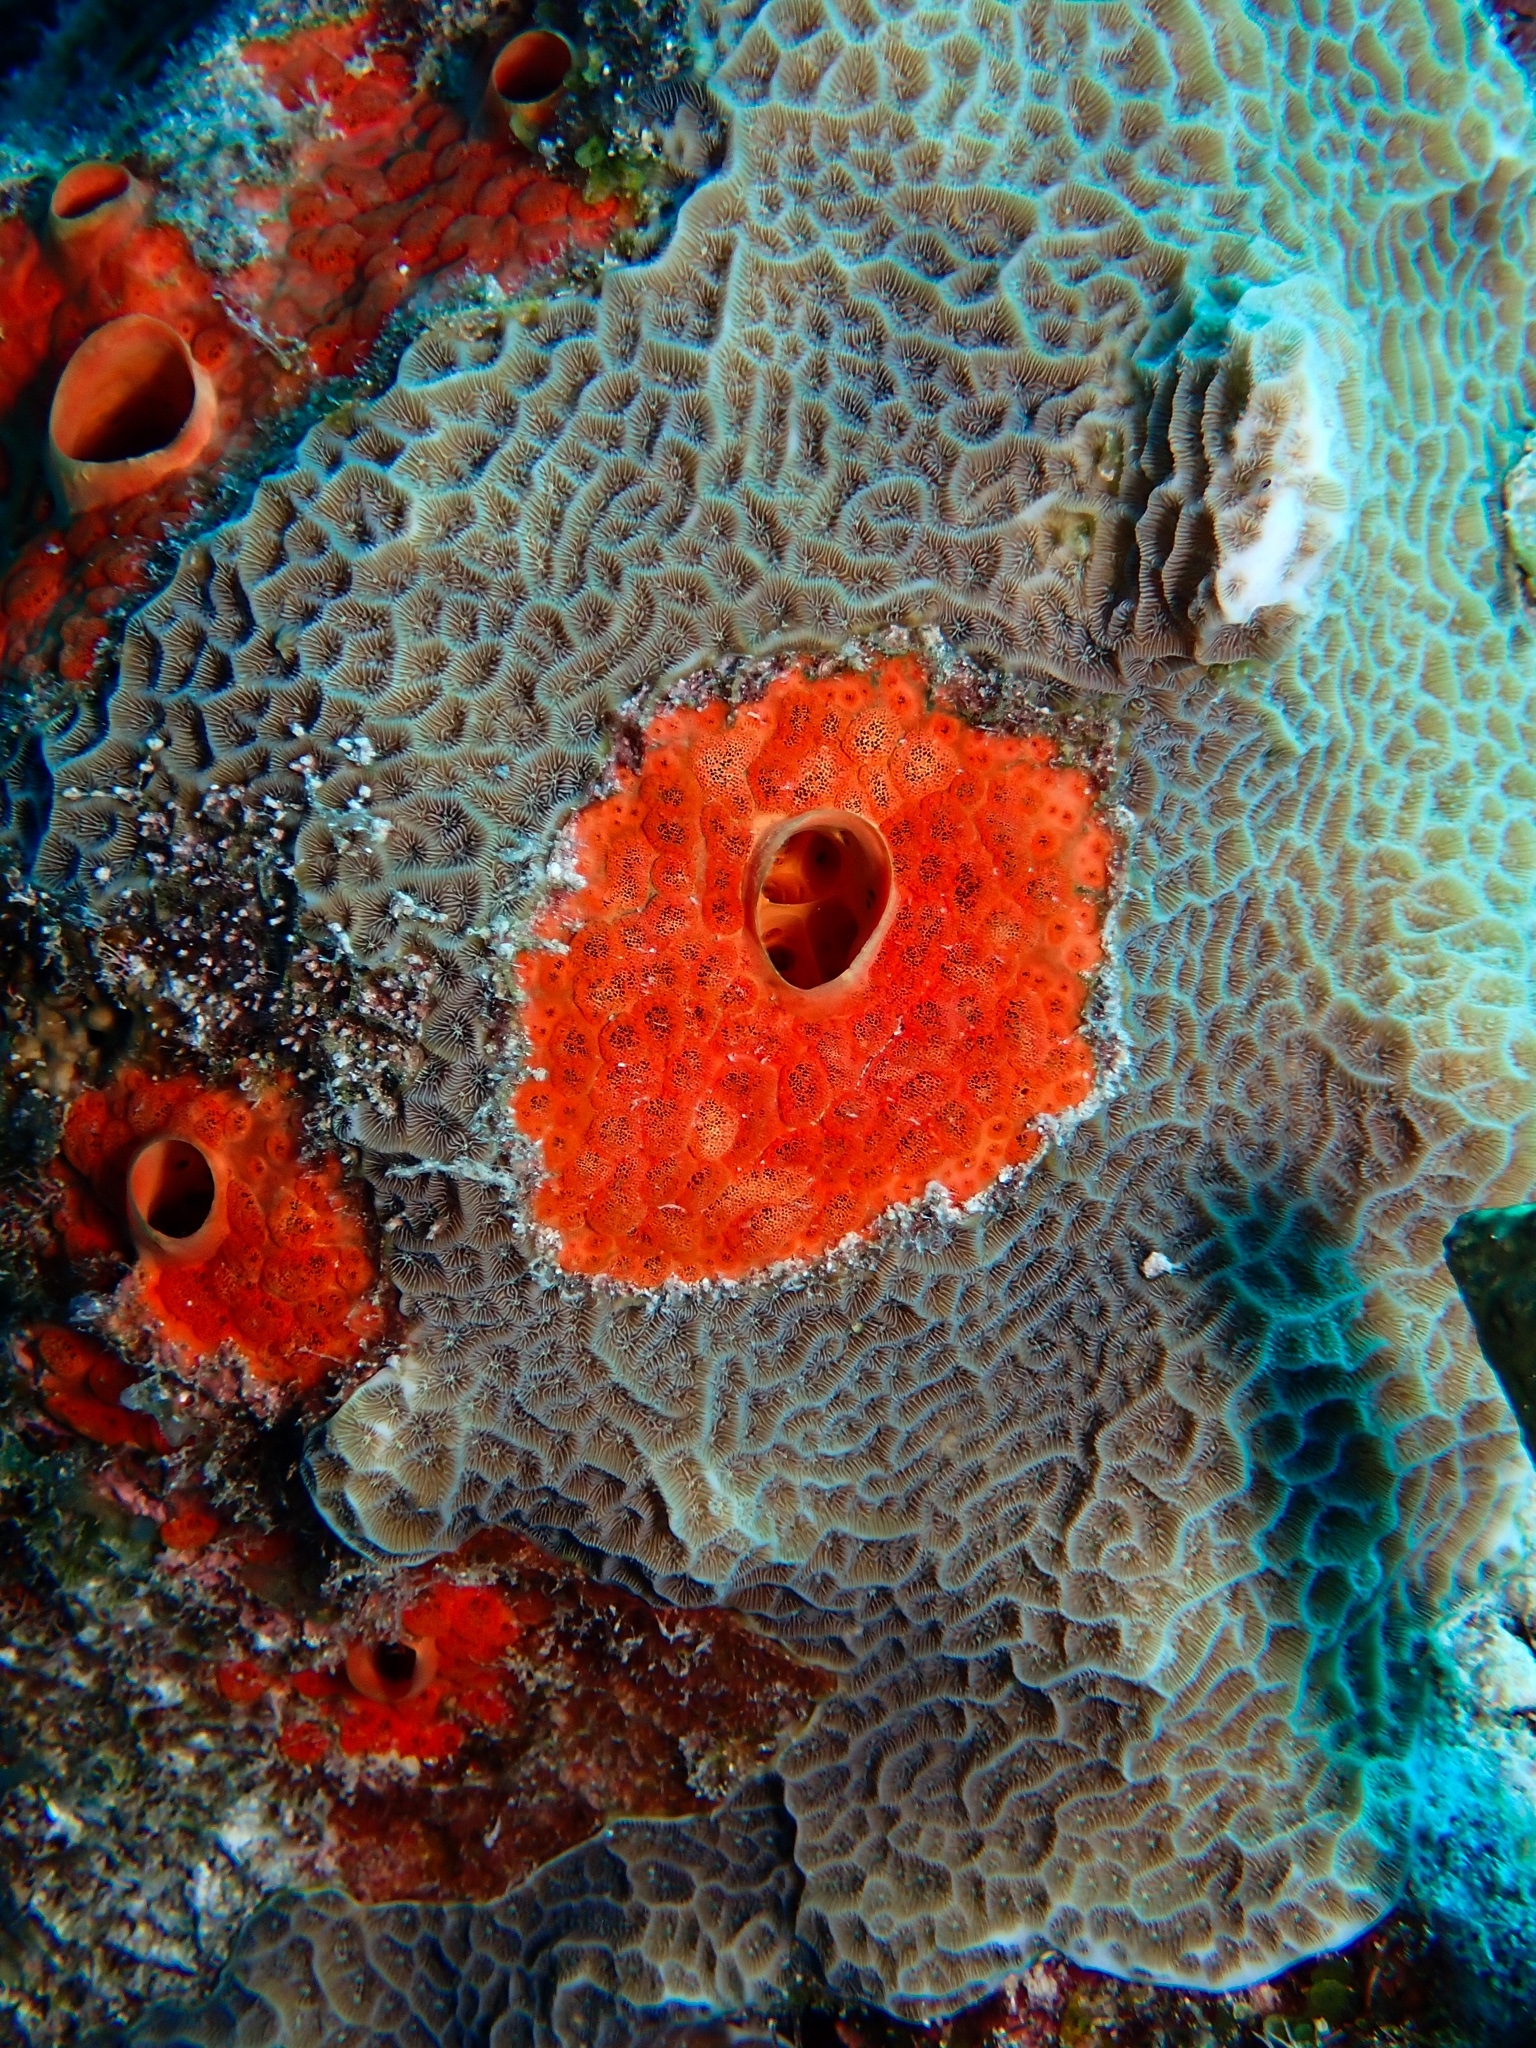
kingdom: Animalia
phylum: Porifera
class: Demospongiae
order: Clionaida
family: Clionaidae
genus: Cliothosa
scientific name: Cliothosa delitrix
